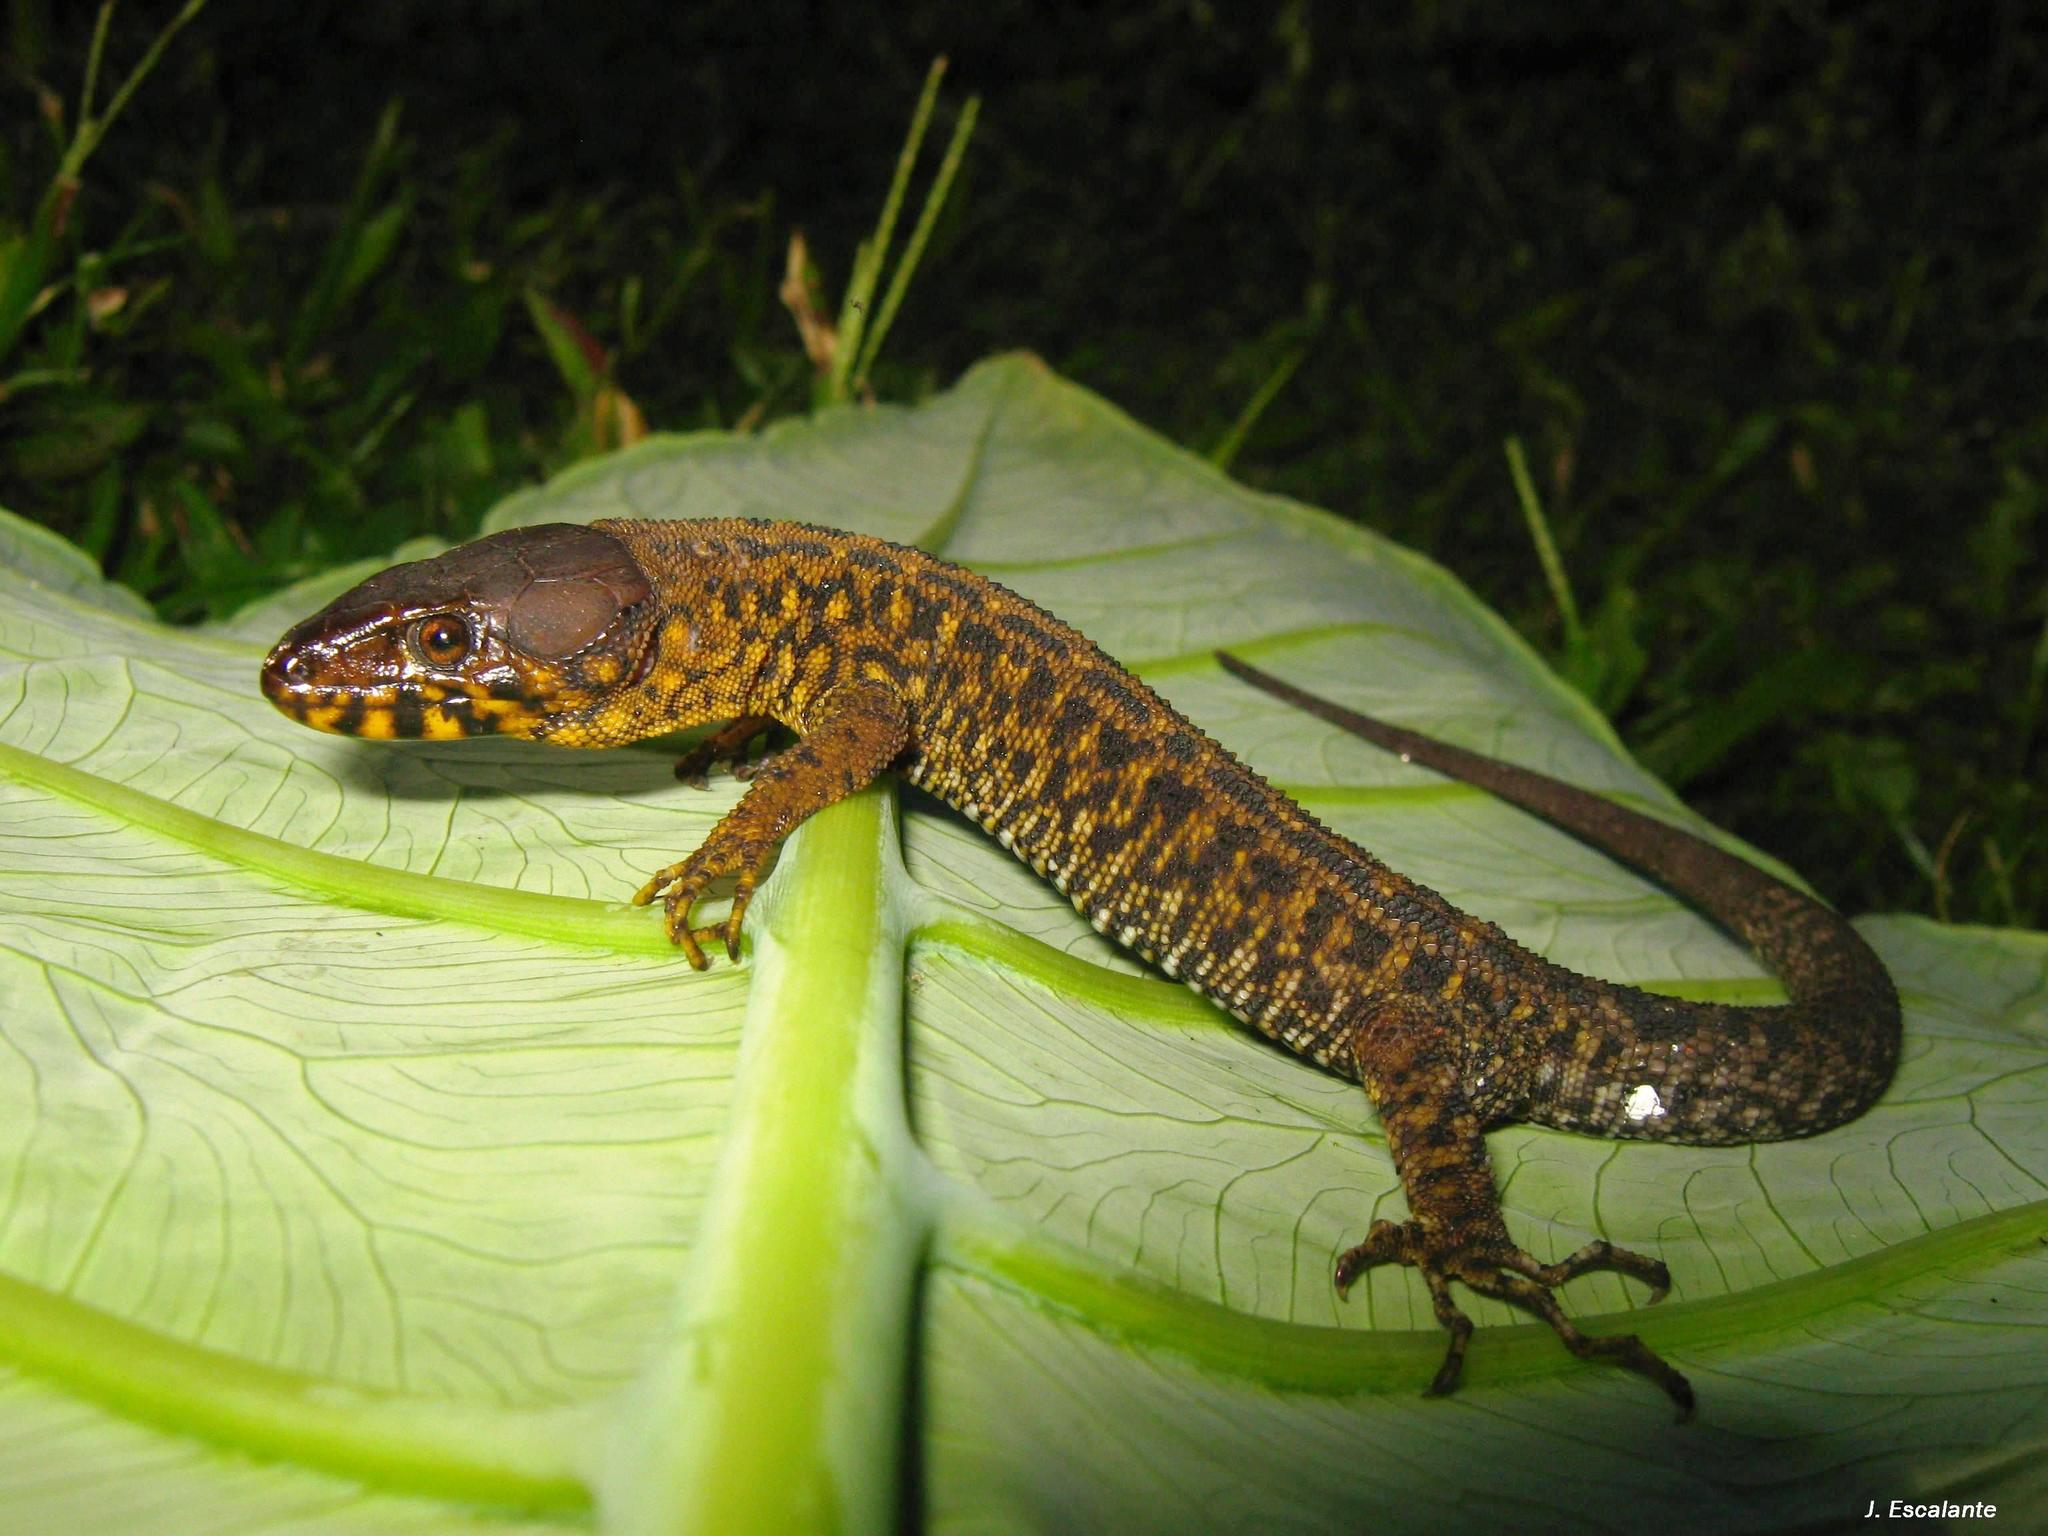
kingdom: Animalia
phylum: Chordata
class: Squamata
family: Xantusiidae
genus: Lepidophyma
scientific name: Lepidophyma pajapanensis
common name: Pajapan tropical night lizard
